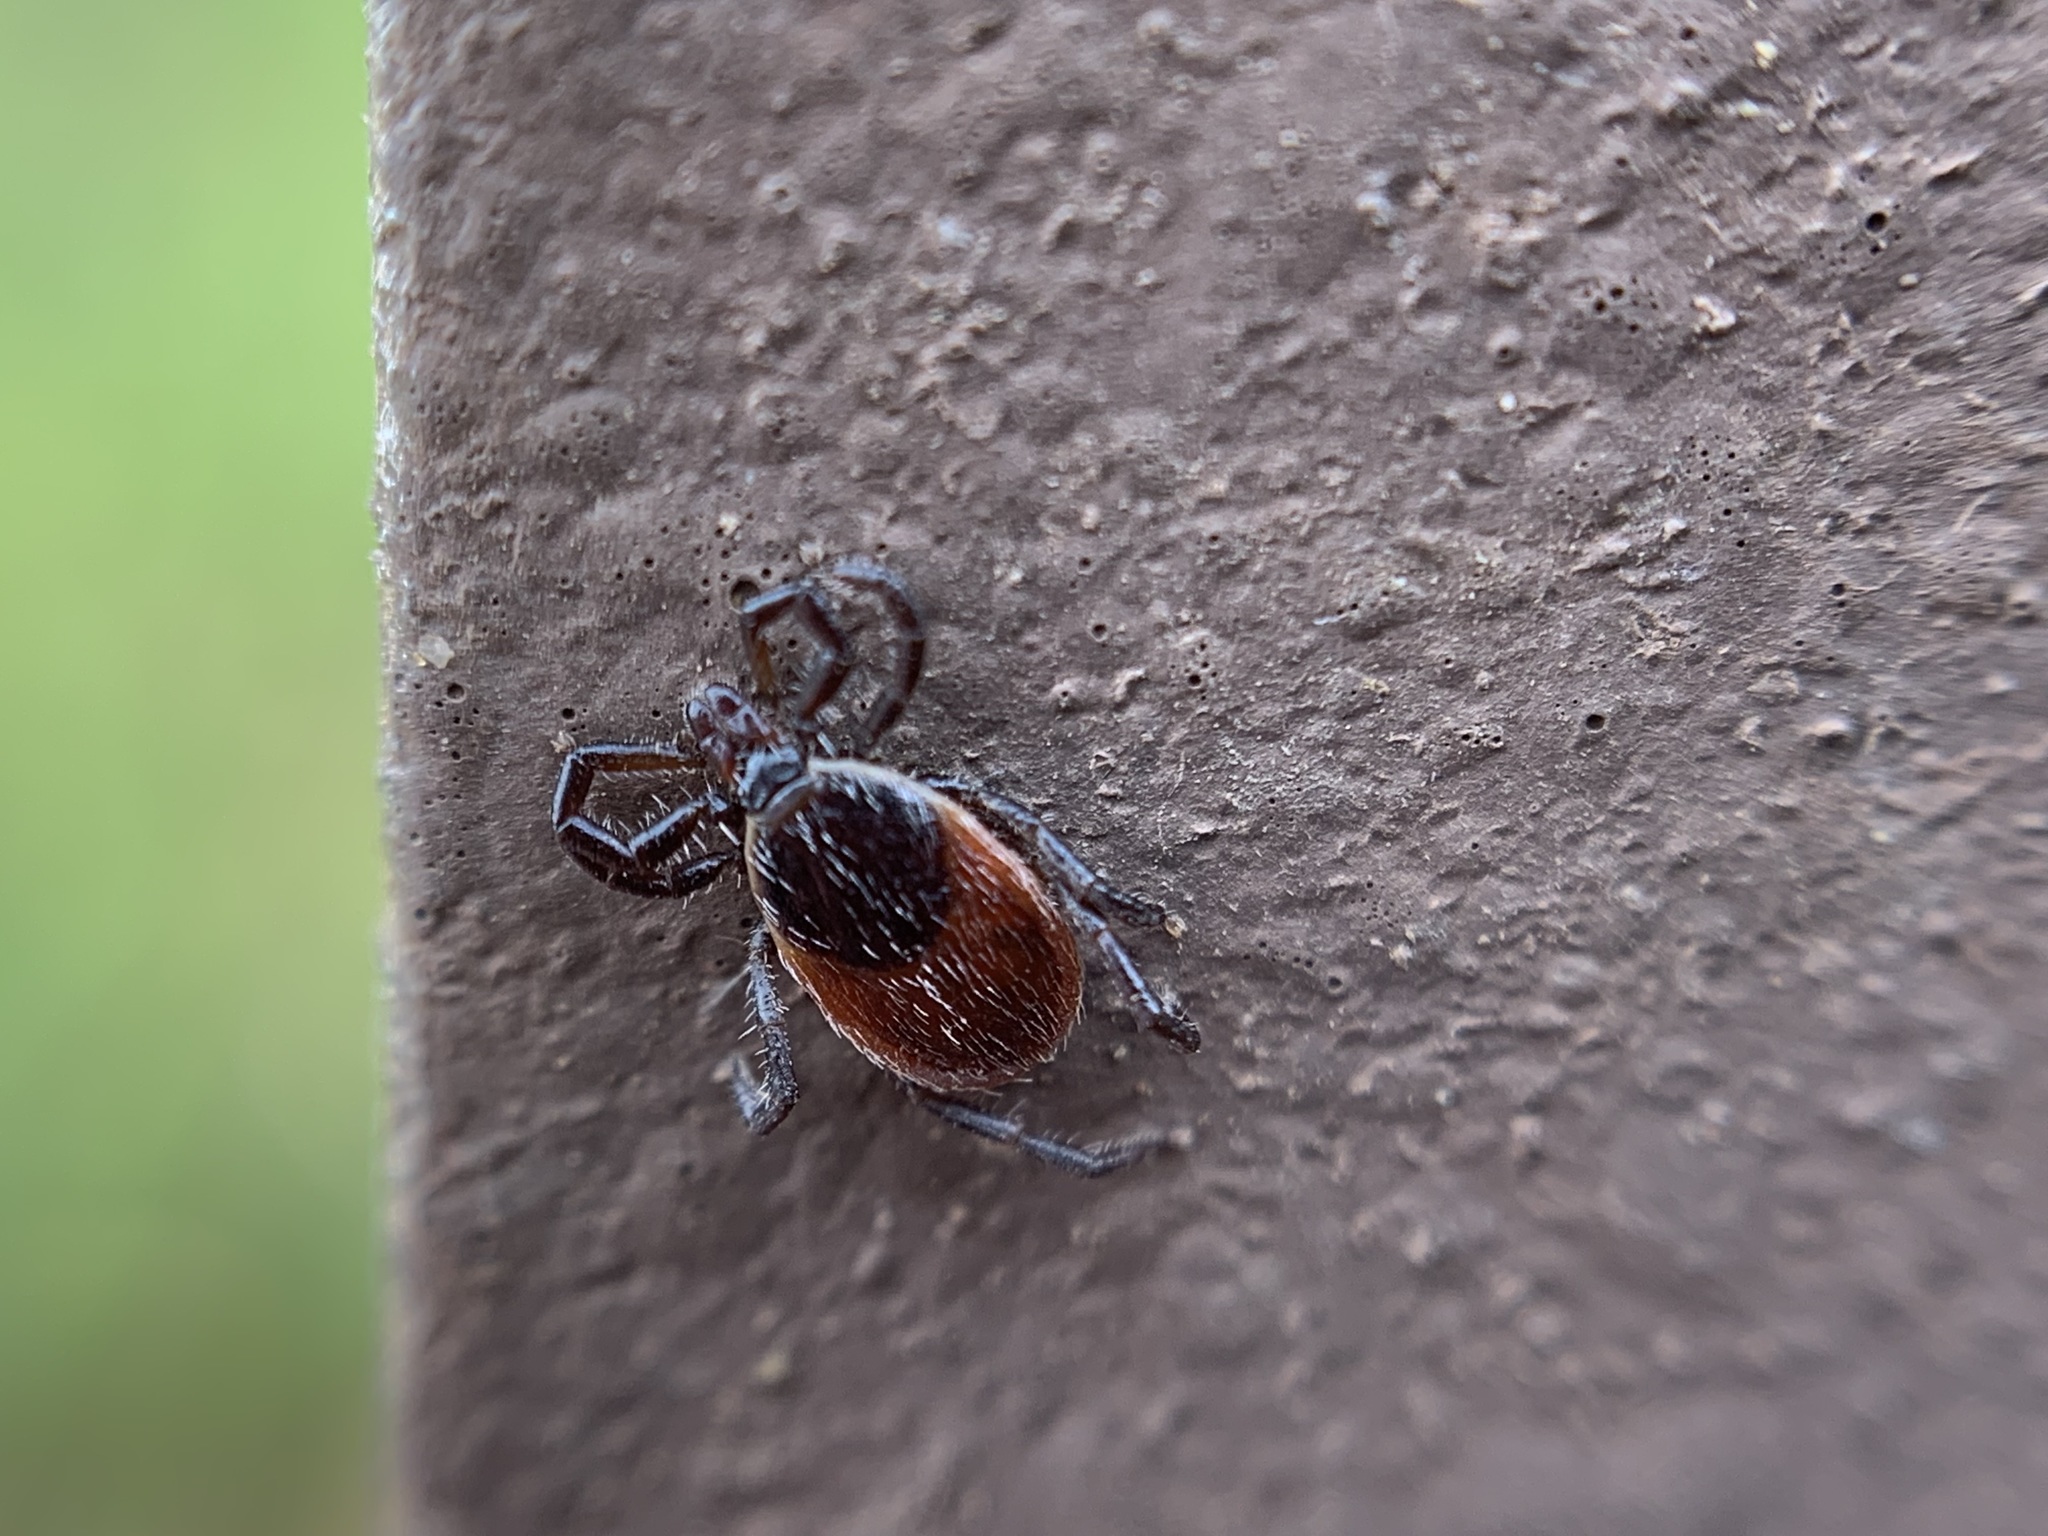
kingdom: Animalia
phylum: Arthropoda
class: Arachnida
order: Ixodida
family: Ixodidae
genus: Ixodes
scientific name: Ixodes pacificus
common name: California black-legged tick
